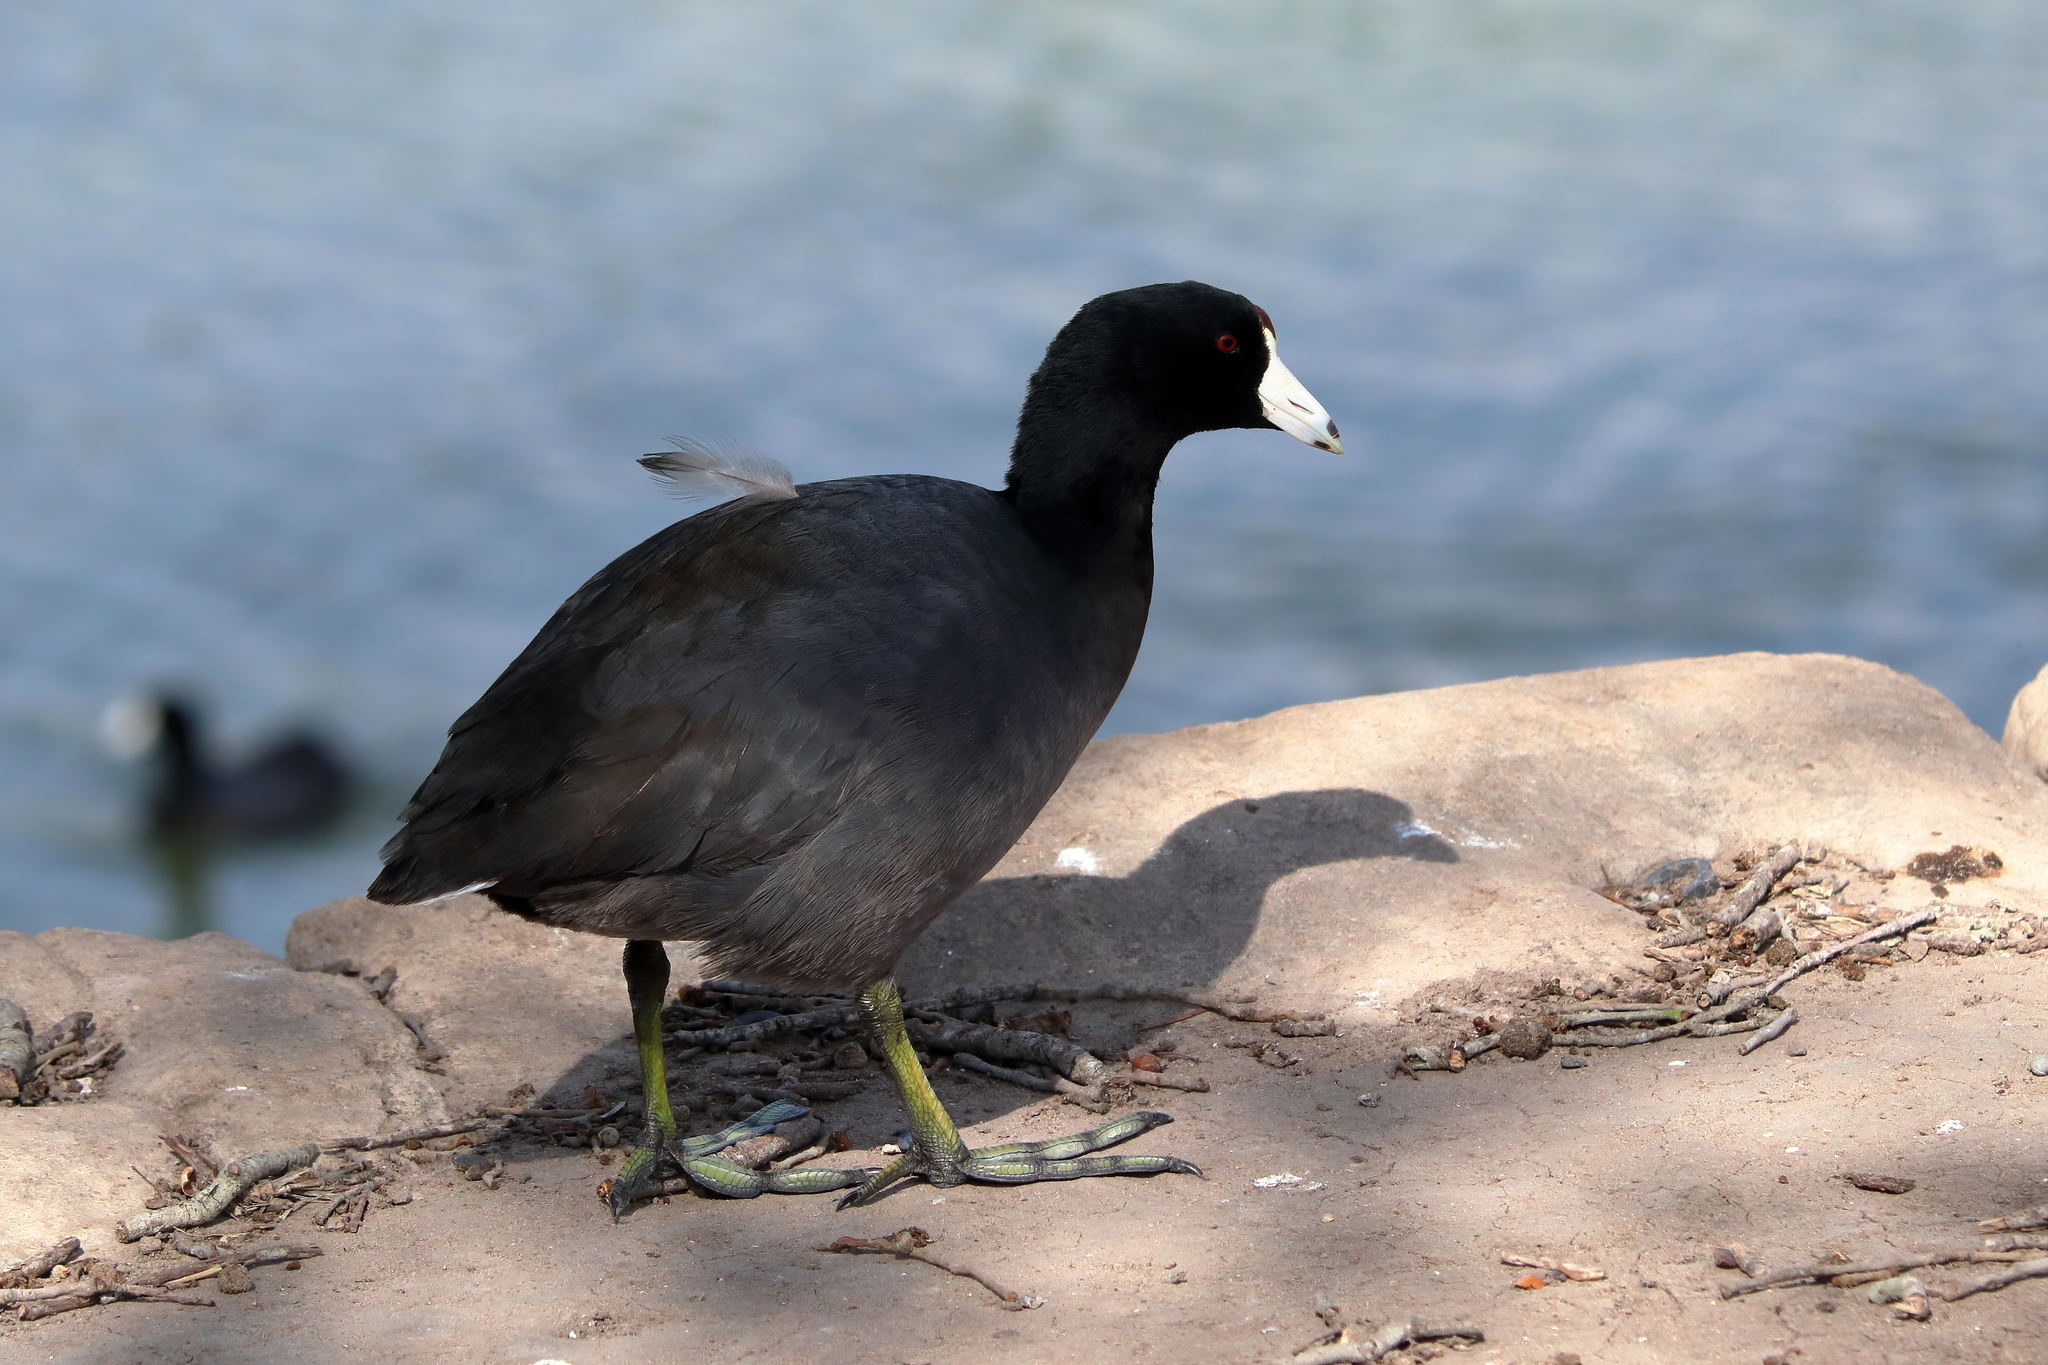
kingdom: Animalia
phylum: Chordata
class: Aves
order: Gruiformes
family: Rallidae
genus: Fulica
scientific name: Fulica americana
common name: American coot
